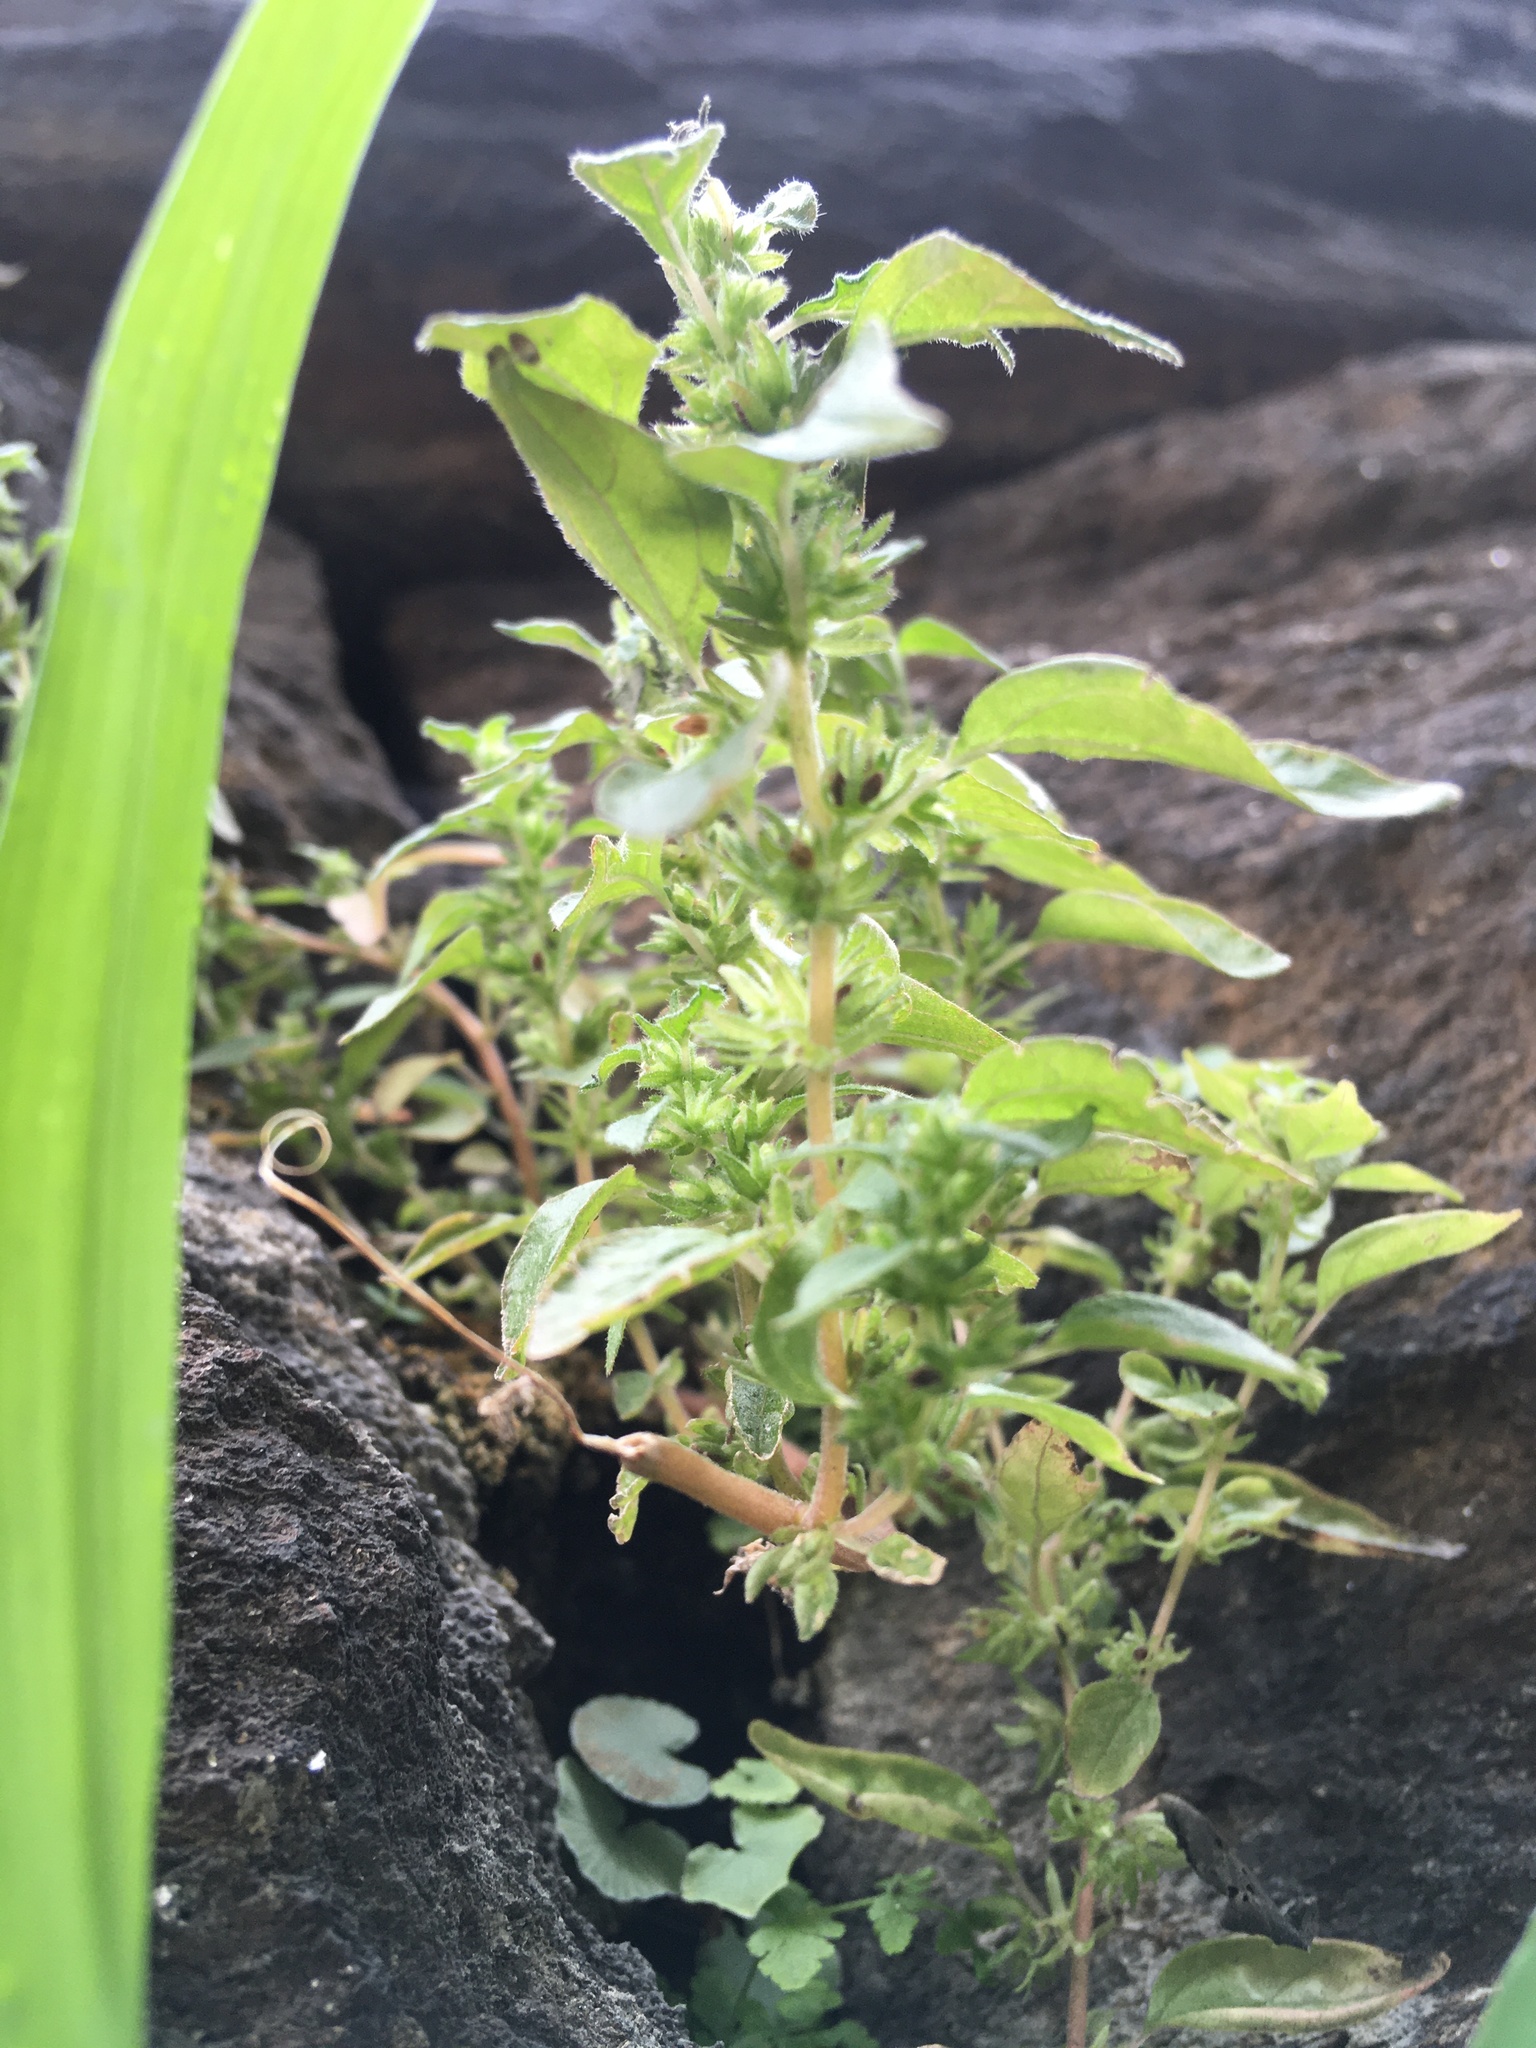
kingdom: Plantae
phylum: Tracheophyta
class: Magnoliopsida
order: Rosales
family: Urticaceae
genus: Parietaria
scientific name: Parietaria pensylvanica
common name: Pennsylvania pellitory
